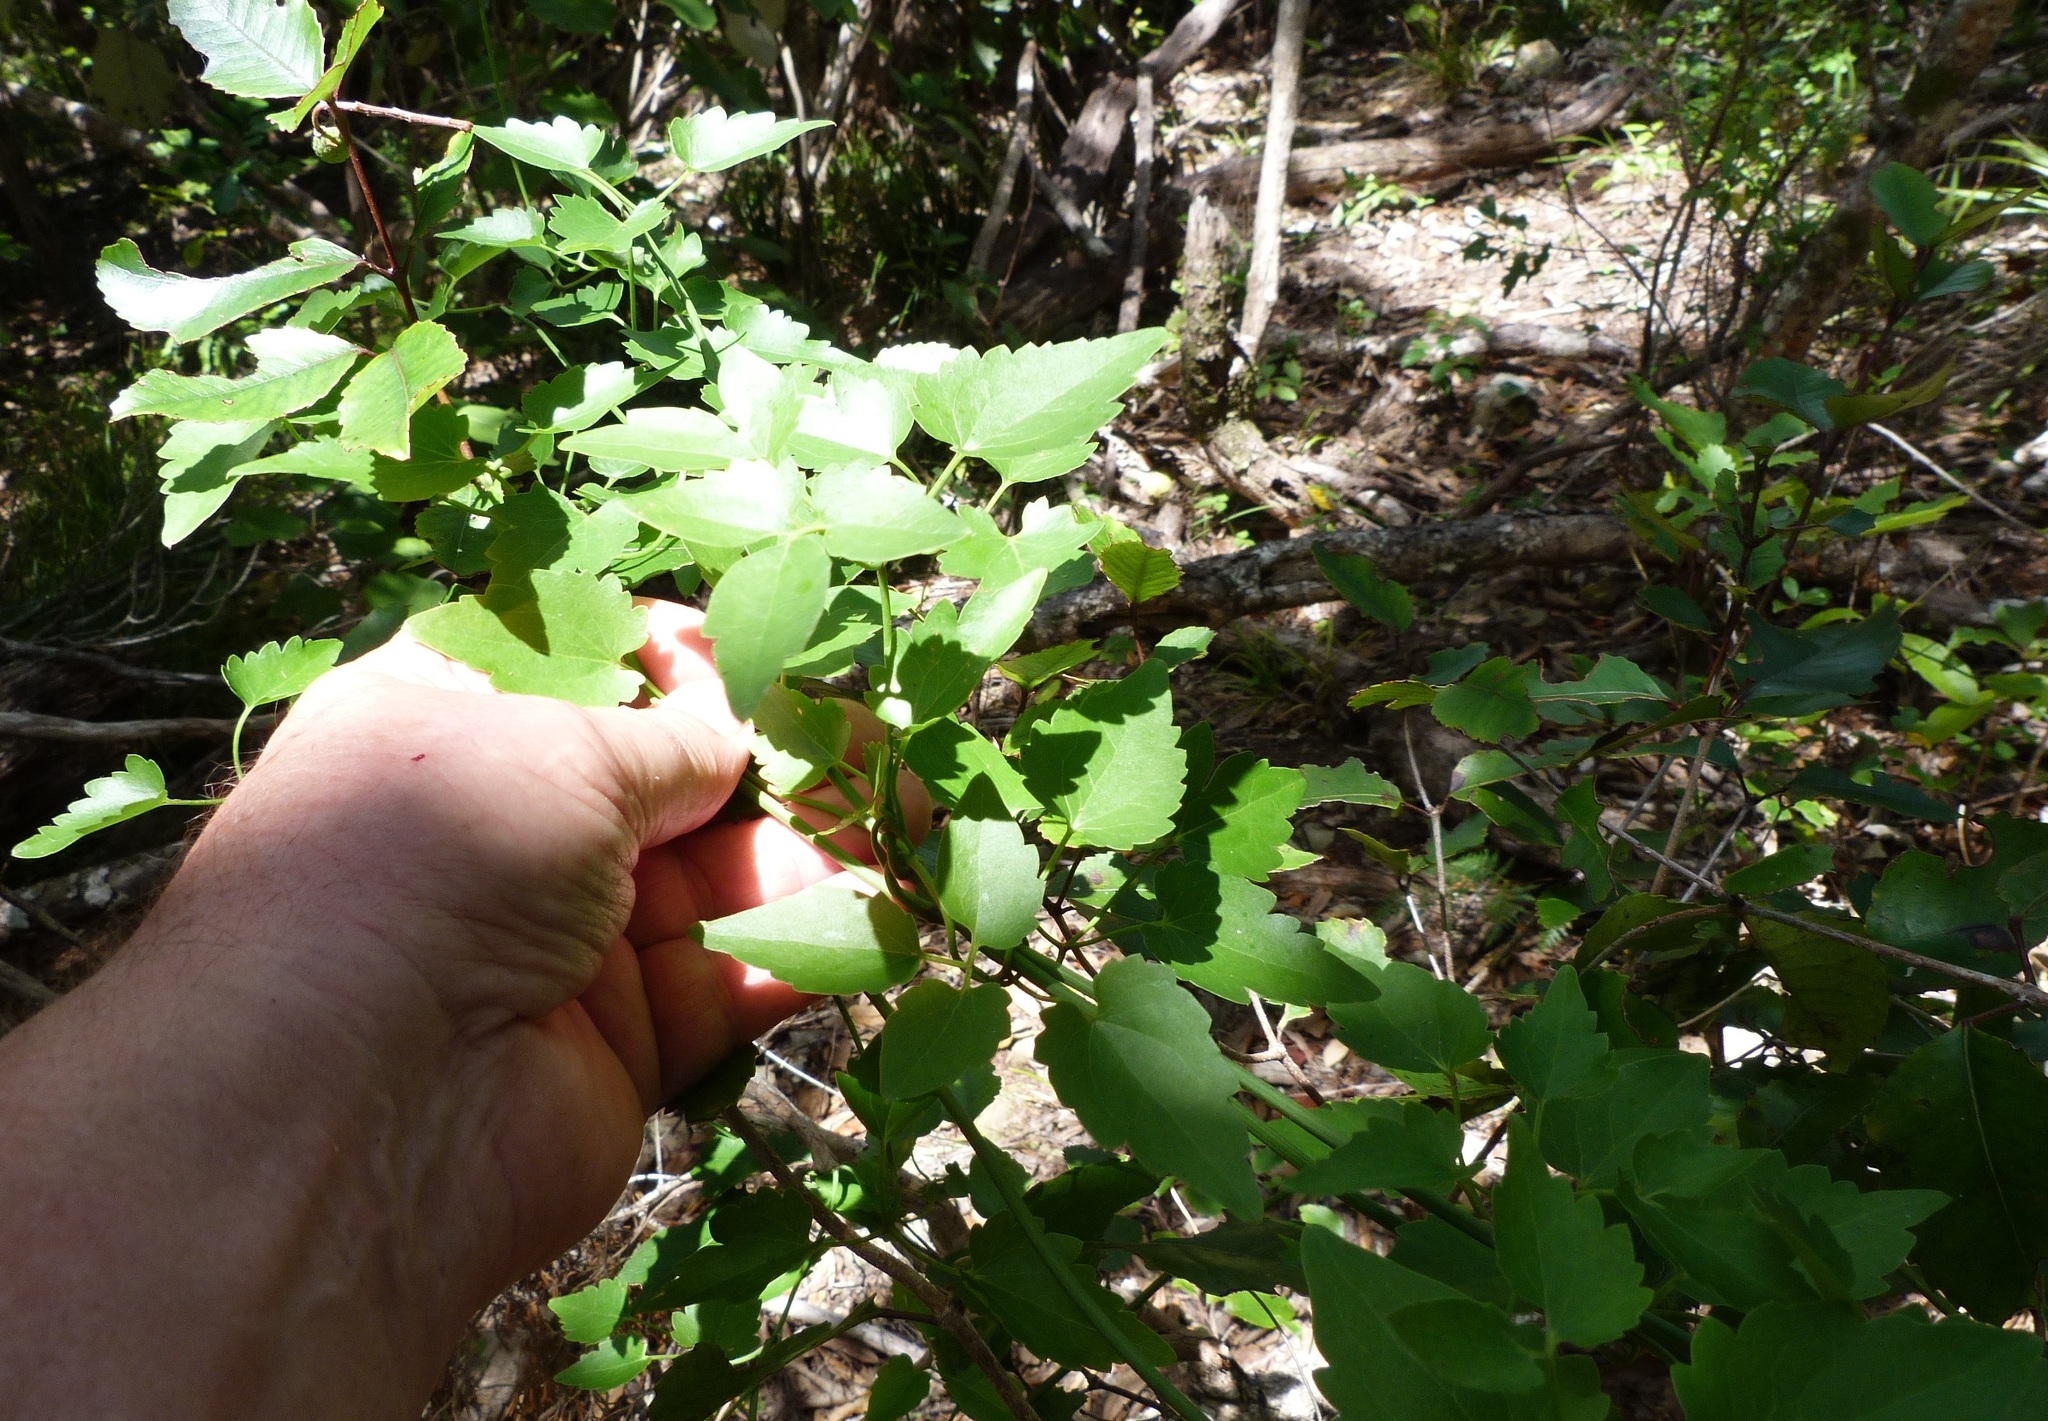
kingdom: Plantae
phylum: Tracheophyta
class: Magnoliopsida
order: Ranunculales
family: Ranunculaceae
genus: Clematis
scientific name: Clematis forsteri
